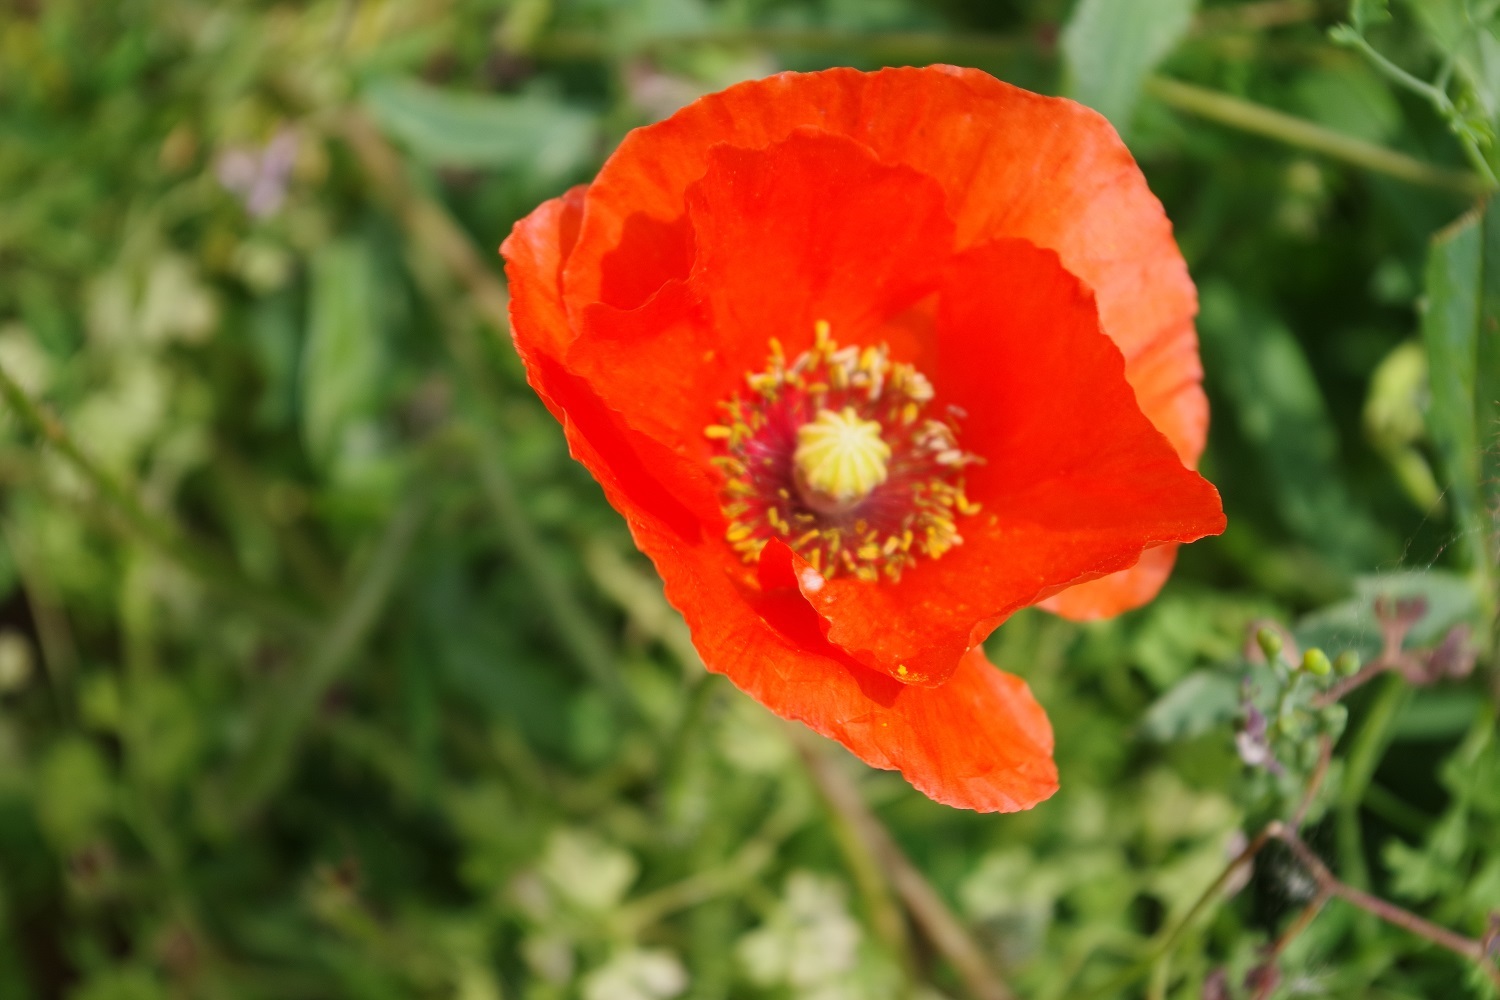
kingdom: Plantae
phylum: Tracheophyta
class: Magnoliopsida
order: Ranunculales
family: Papaveraceae
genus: Papaver
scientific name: Papaver rhoeas
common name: Corn poppy
